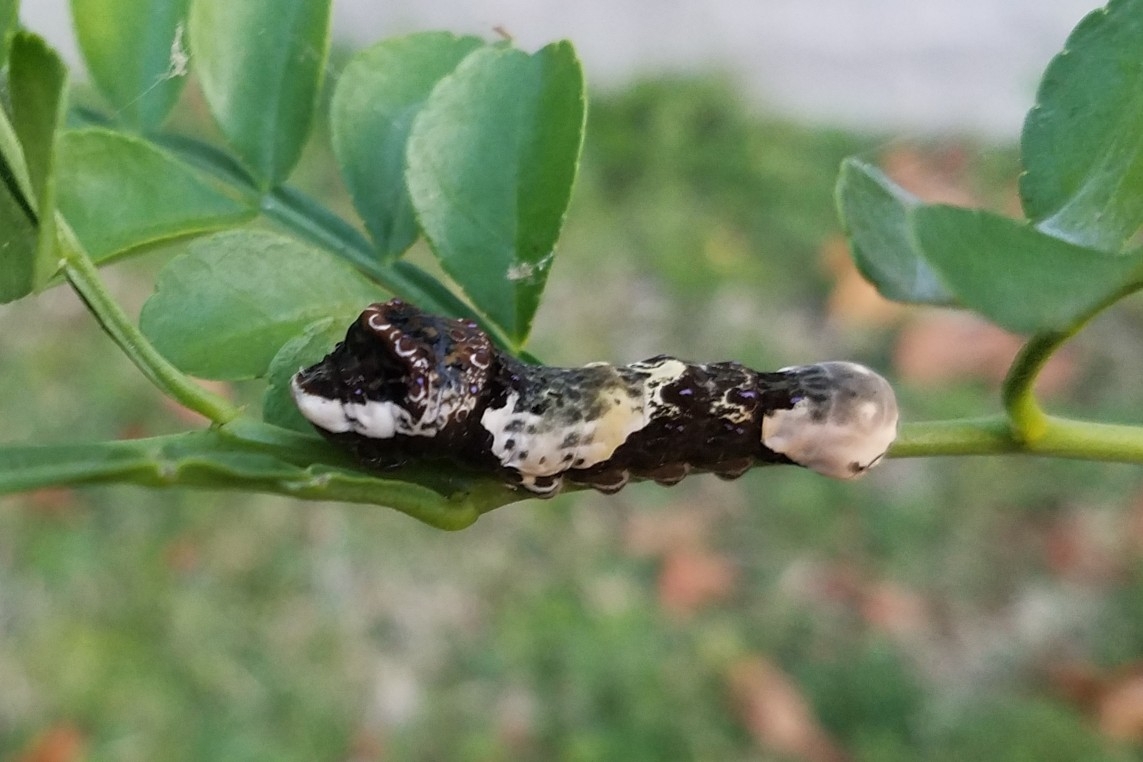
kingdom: Animalia
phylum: Arthropoda
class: Insecta
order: Lepidoptera
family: Papilionidae
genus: Papilio
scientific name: Papilio cresphontes
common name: Giant swallowtail
